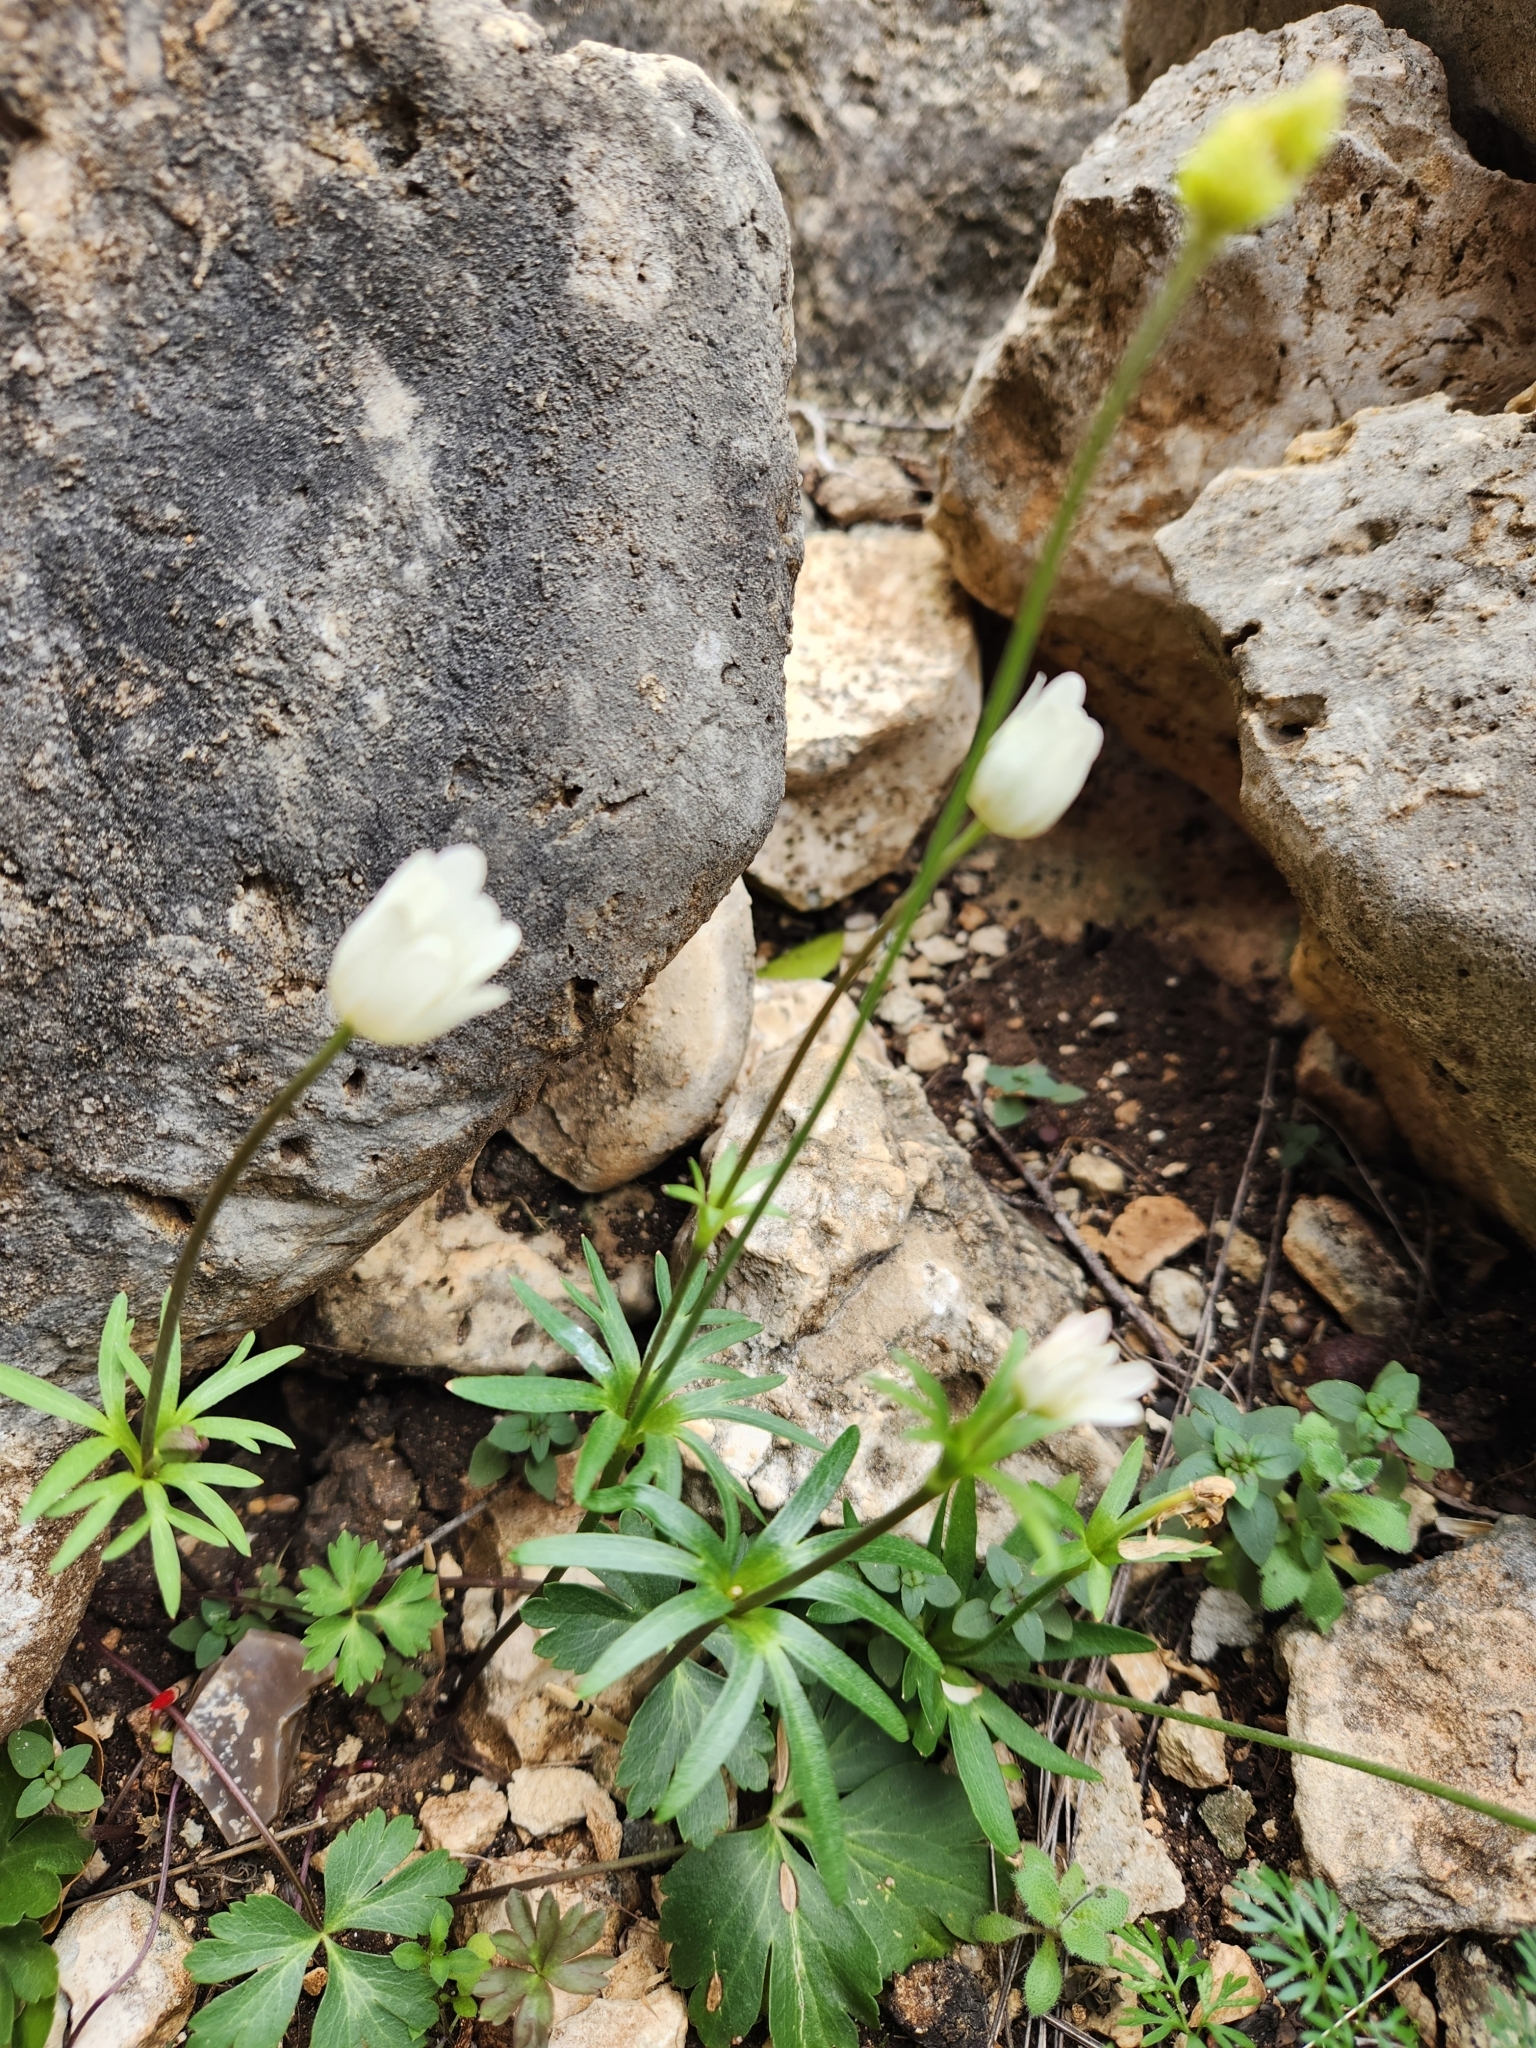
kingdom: Plantae
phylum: Tracheophyta
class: Magnoliopsida
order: Ranunculales
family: Ranunculaceae
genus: Anemone
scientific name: Anemone edwardsiana
